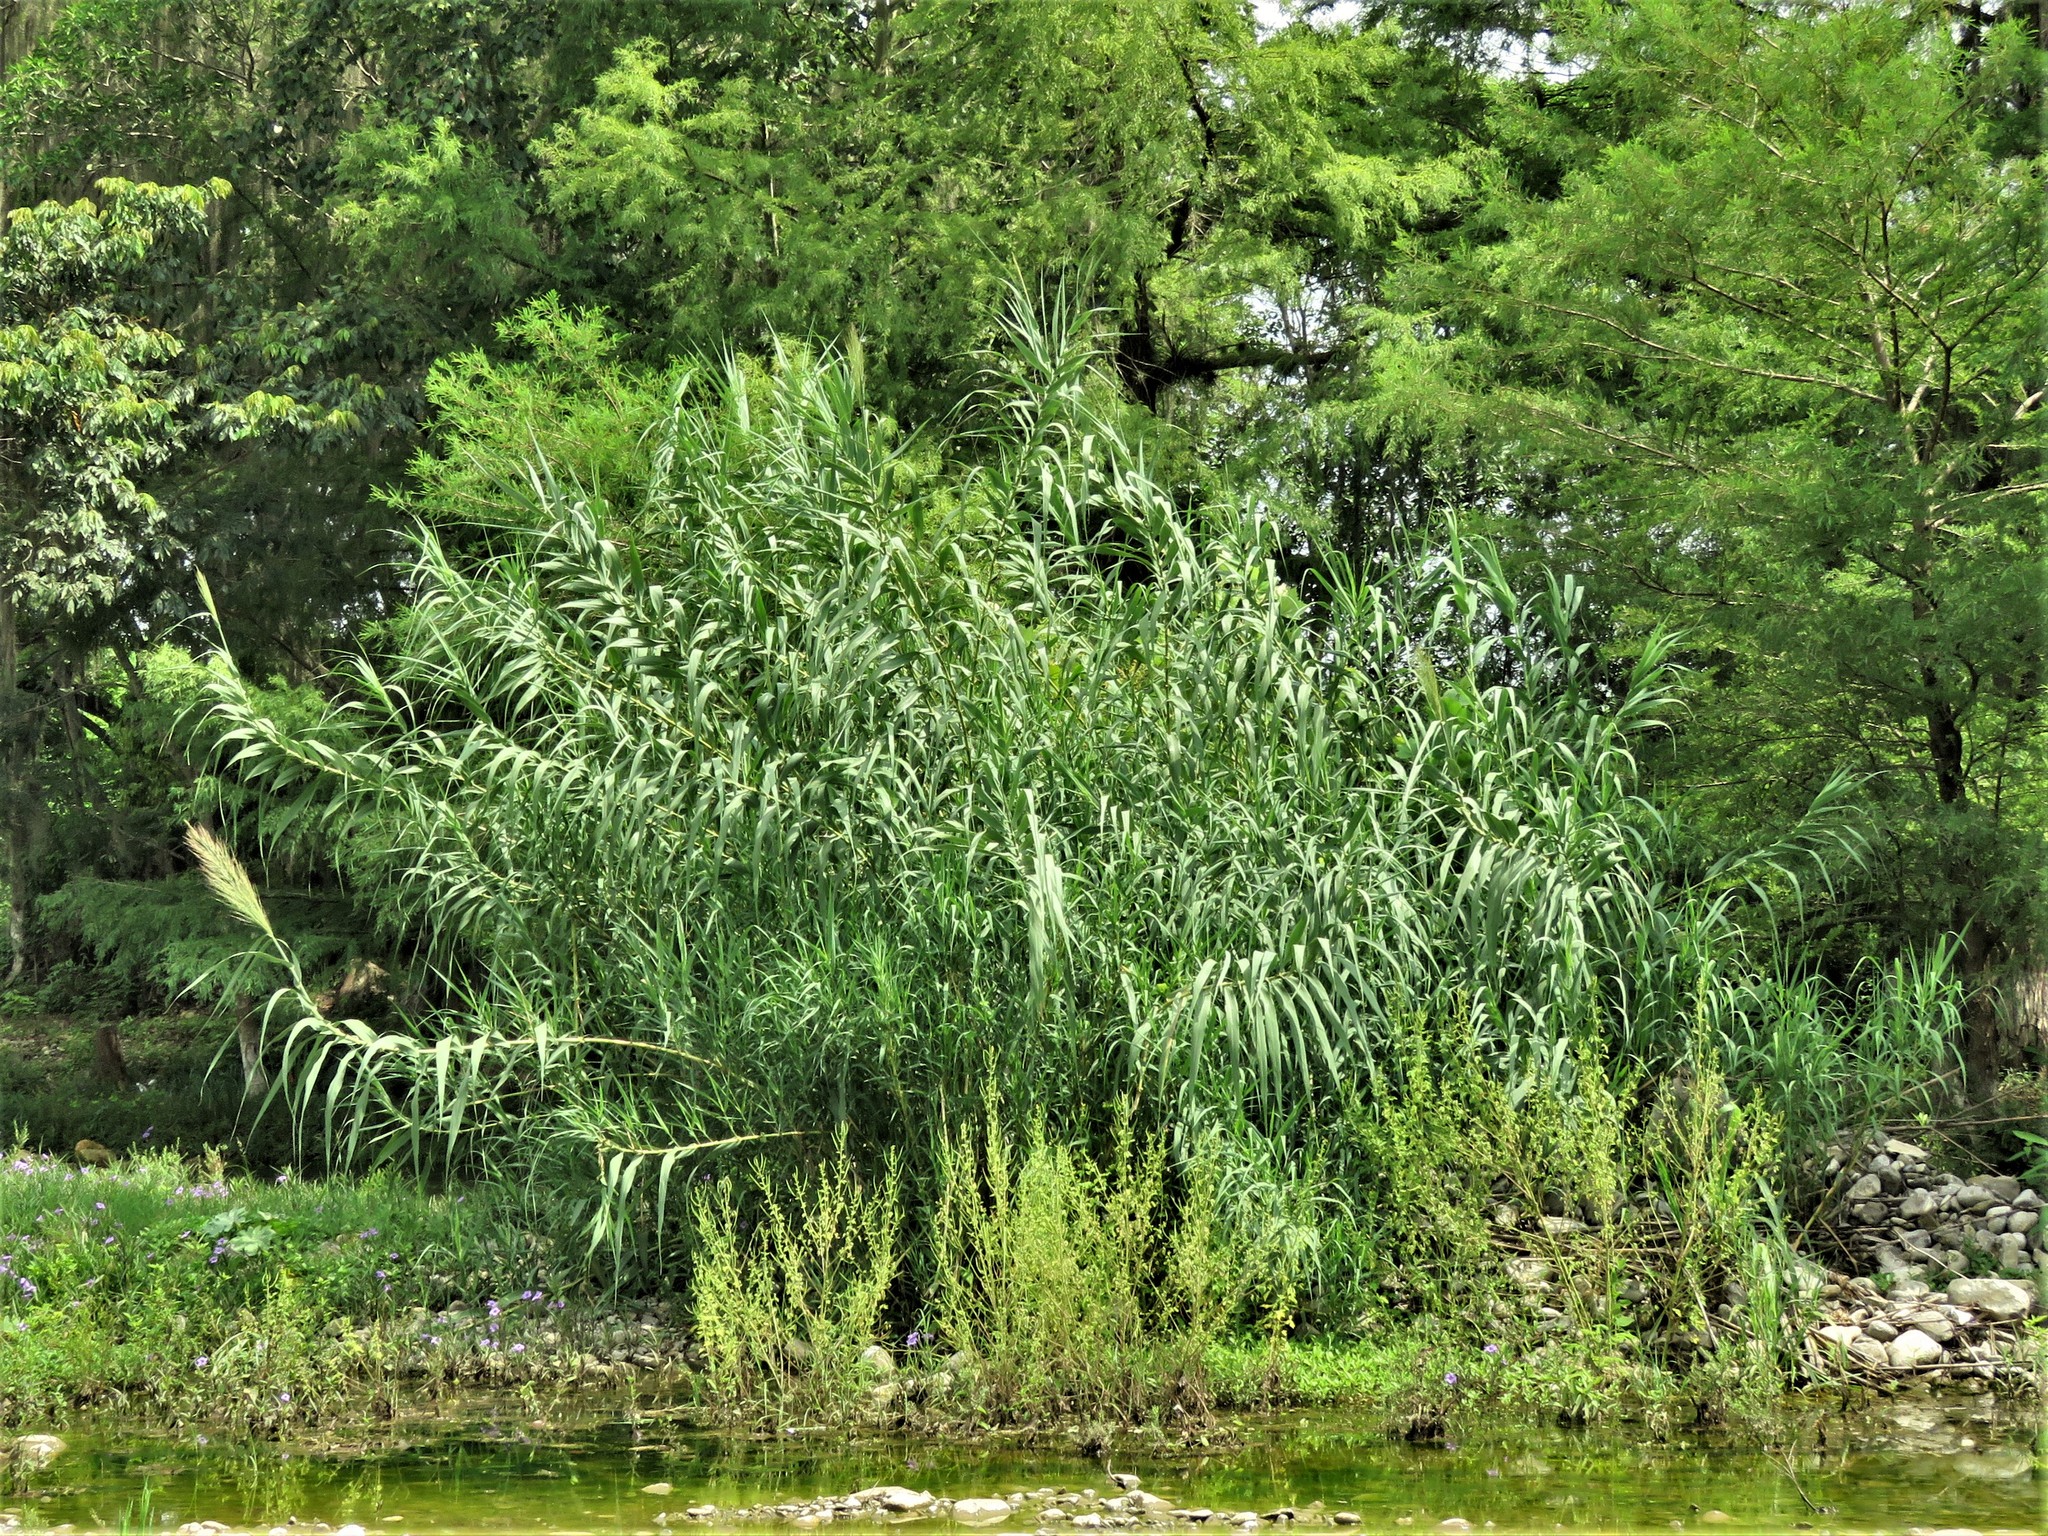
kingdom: Plantae
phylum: Tracheophyta
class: Liliopsida
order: Poales
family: Poaceae
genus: Arundo
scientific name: Arundo donax
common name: Giant reed
